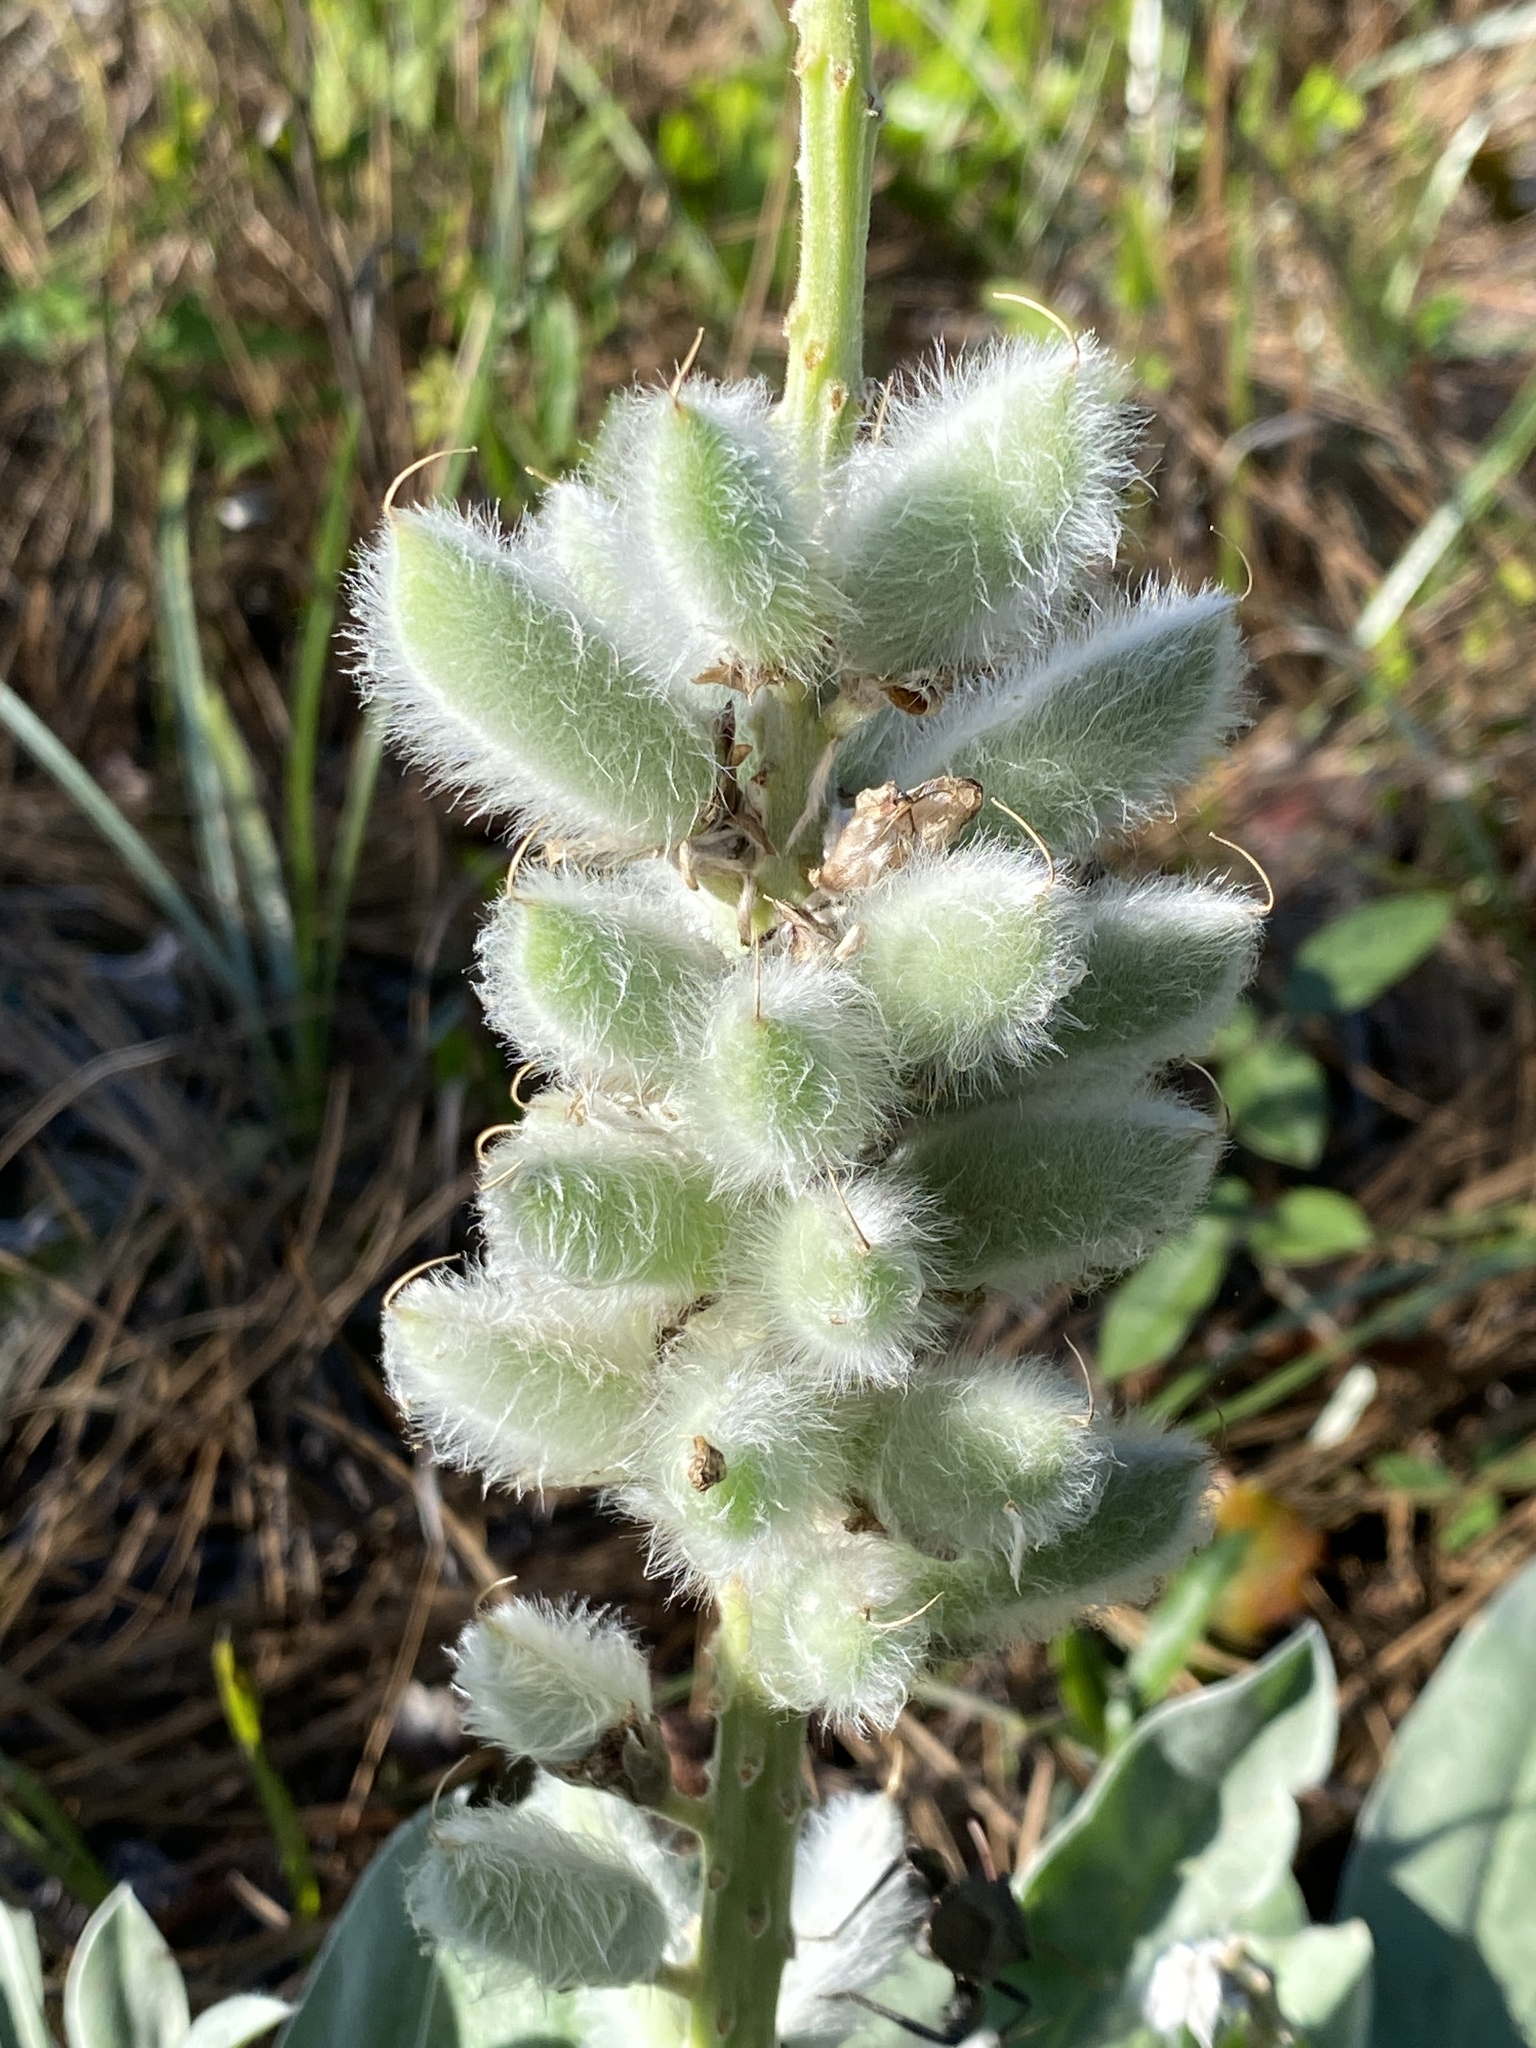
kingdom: Plantae
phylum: Tracheophyta
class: Magnoliopsida
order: Fabales
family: Fabaceae
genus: Lupinus
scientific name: Lupinus villosus
